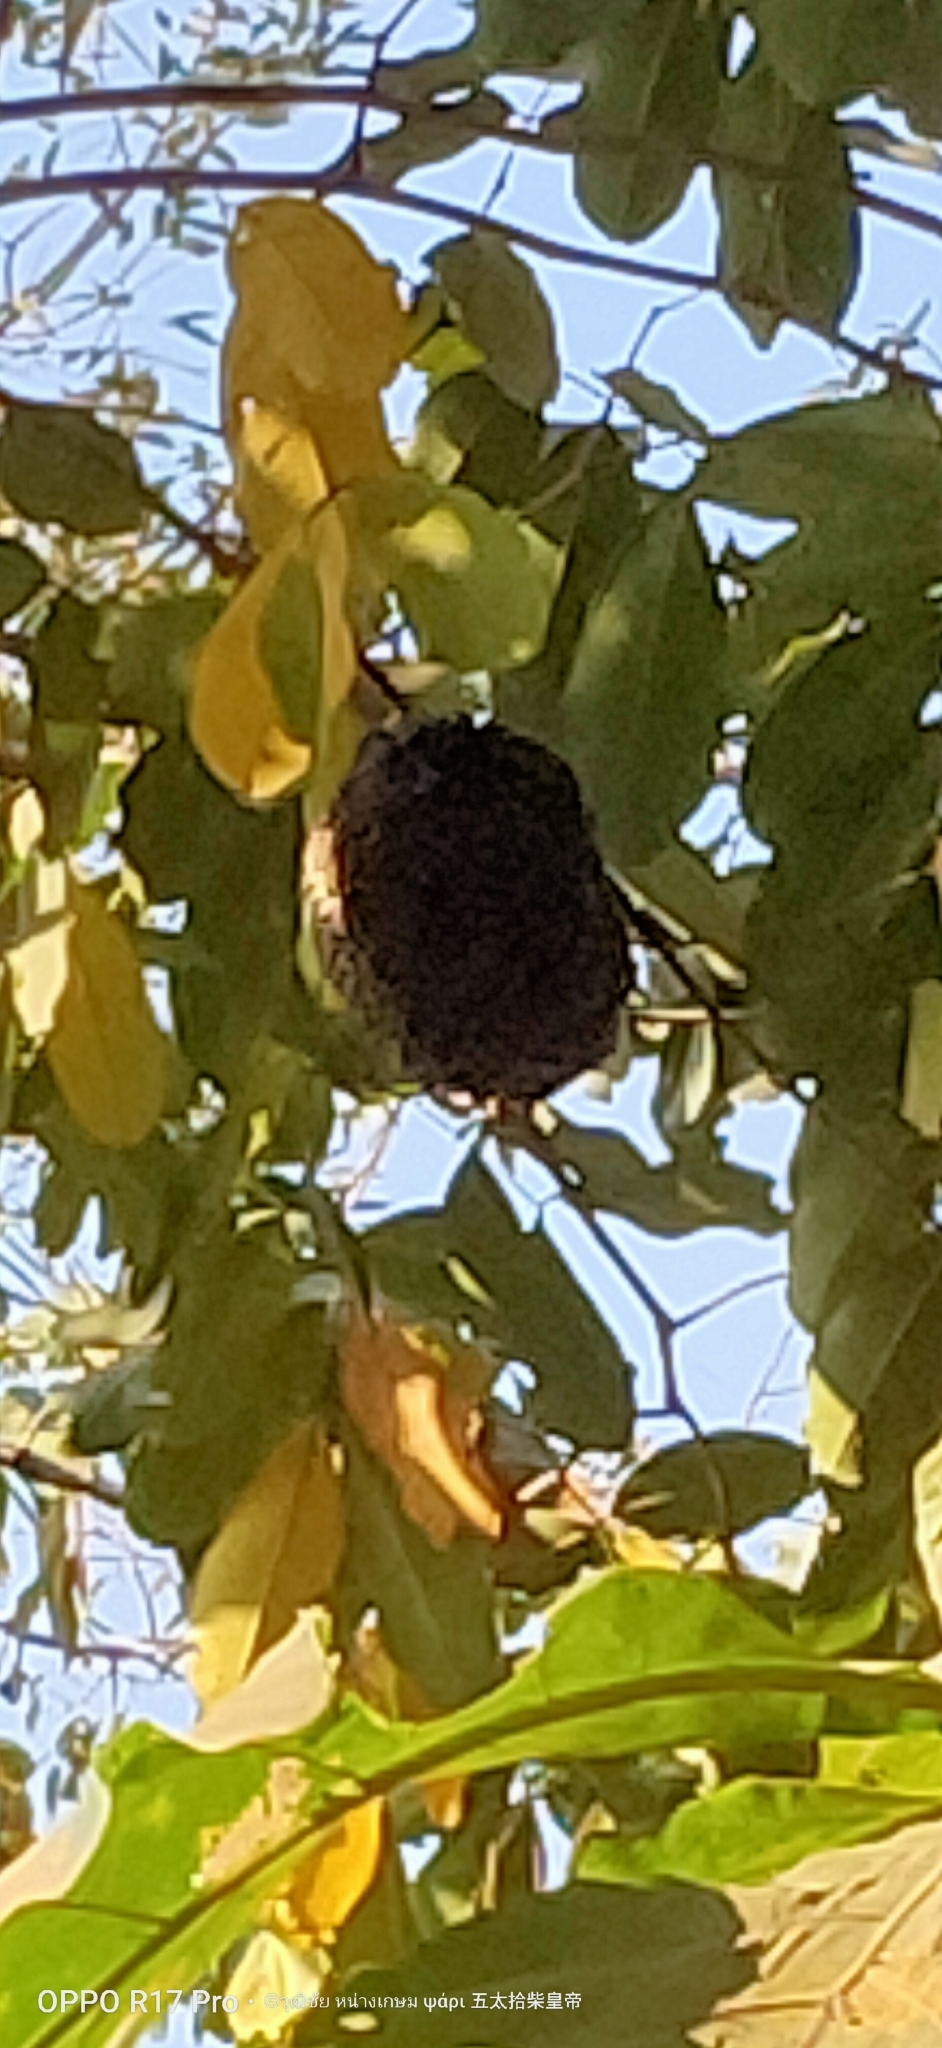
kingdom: Animalia
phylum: Arthropoda
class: Insecta
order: Hymenoptera
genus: Micrapis
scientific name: Micrapis
